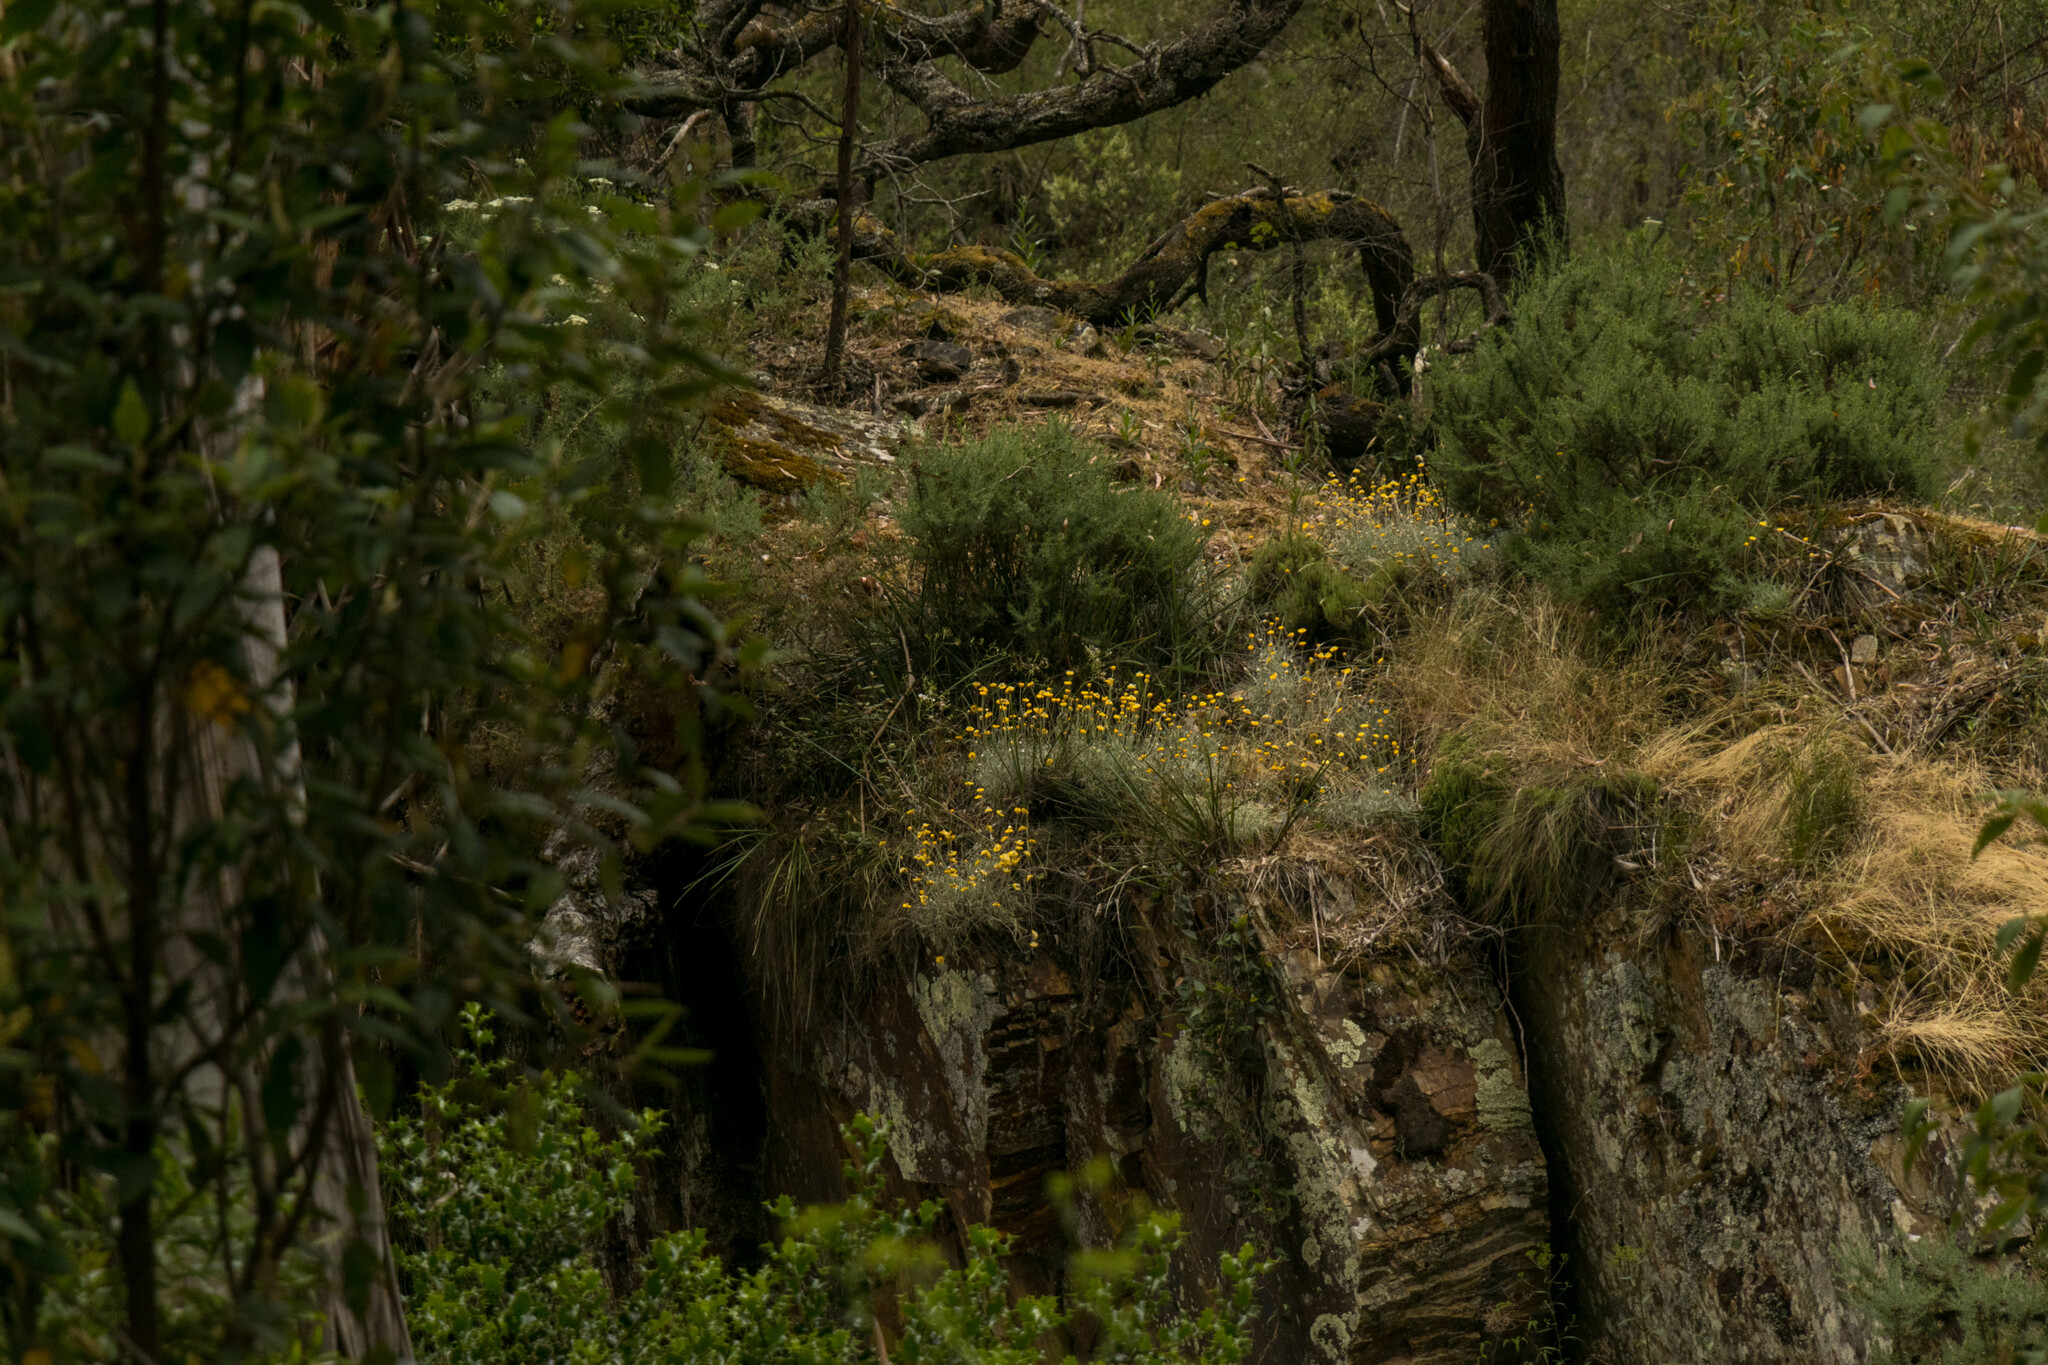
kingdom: Plantae
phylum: Tracheophyta
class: Magnoliopsida
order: Asterales
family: Asteraceae
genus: Leucochrysum
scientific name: Leucochrysum albicans
